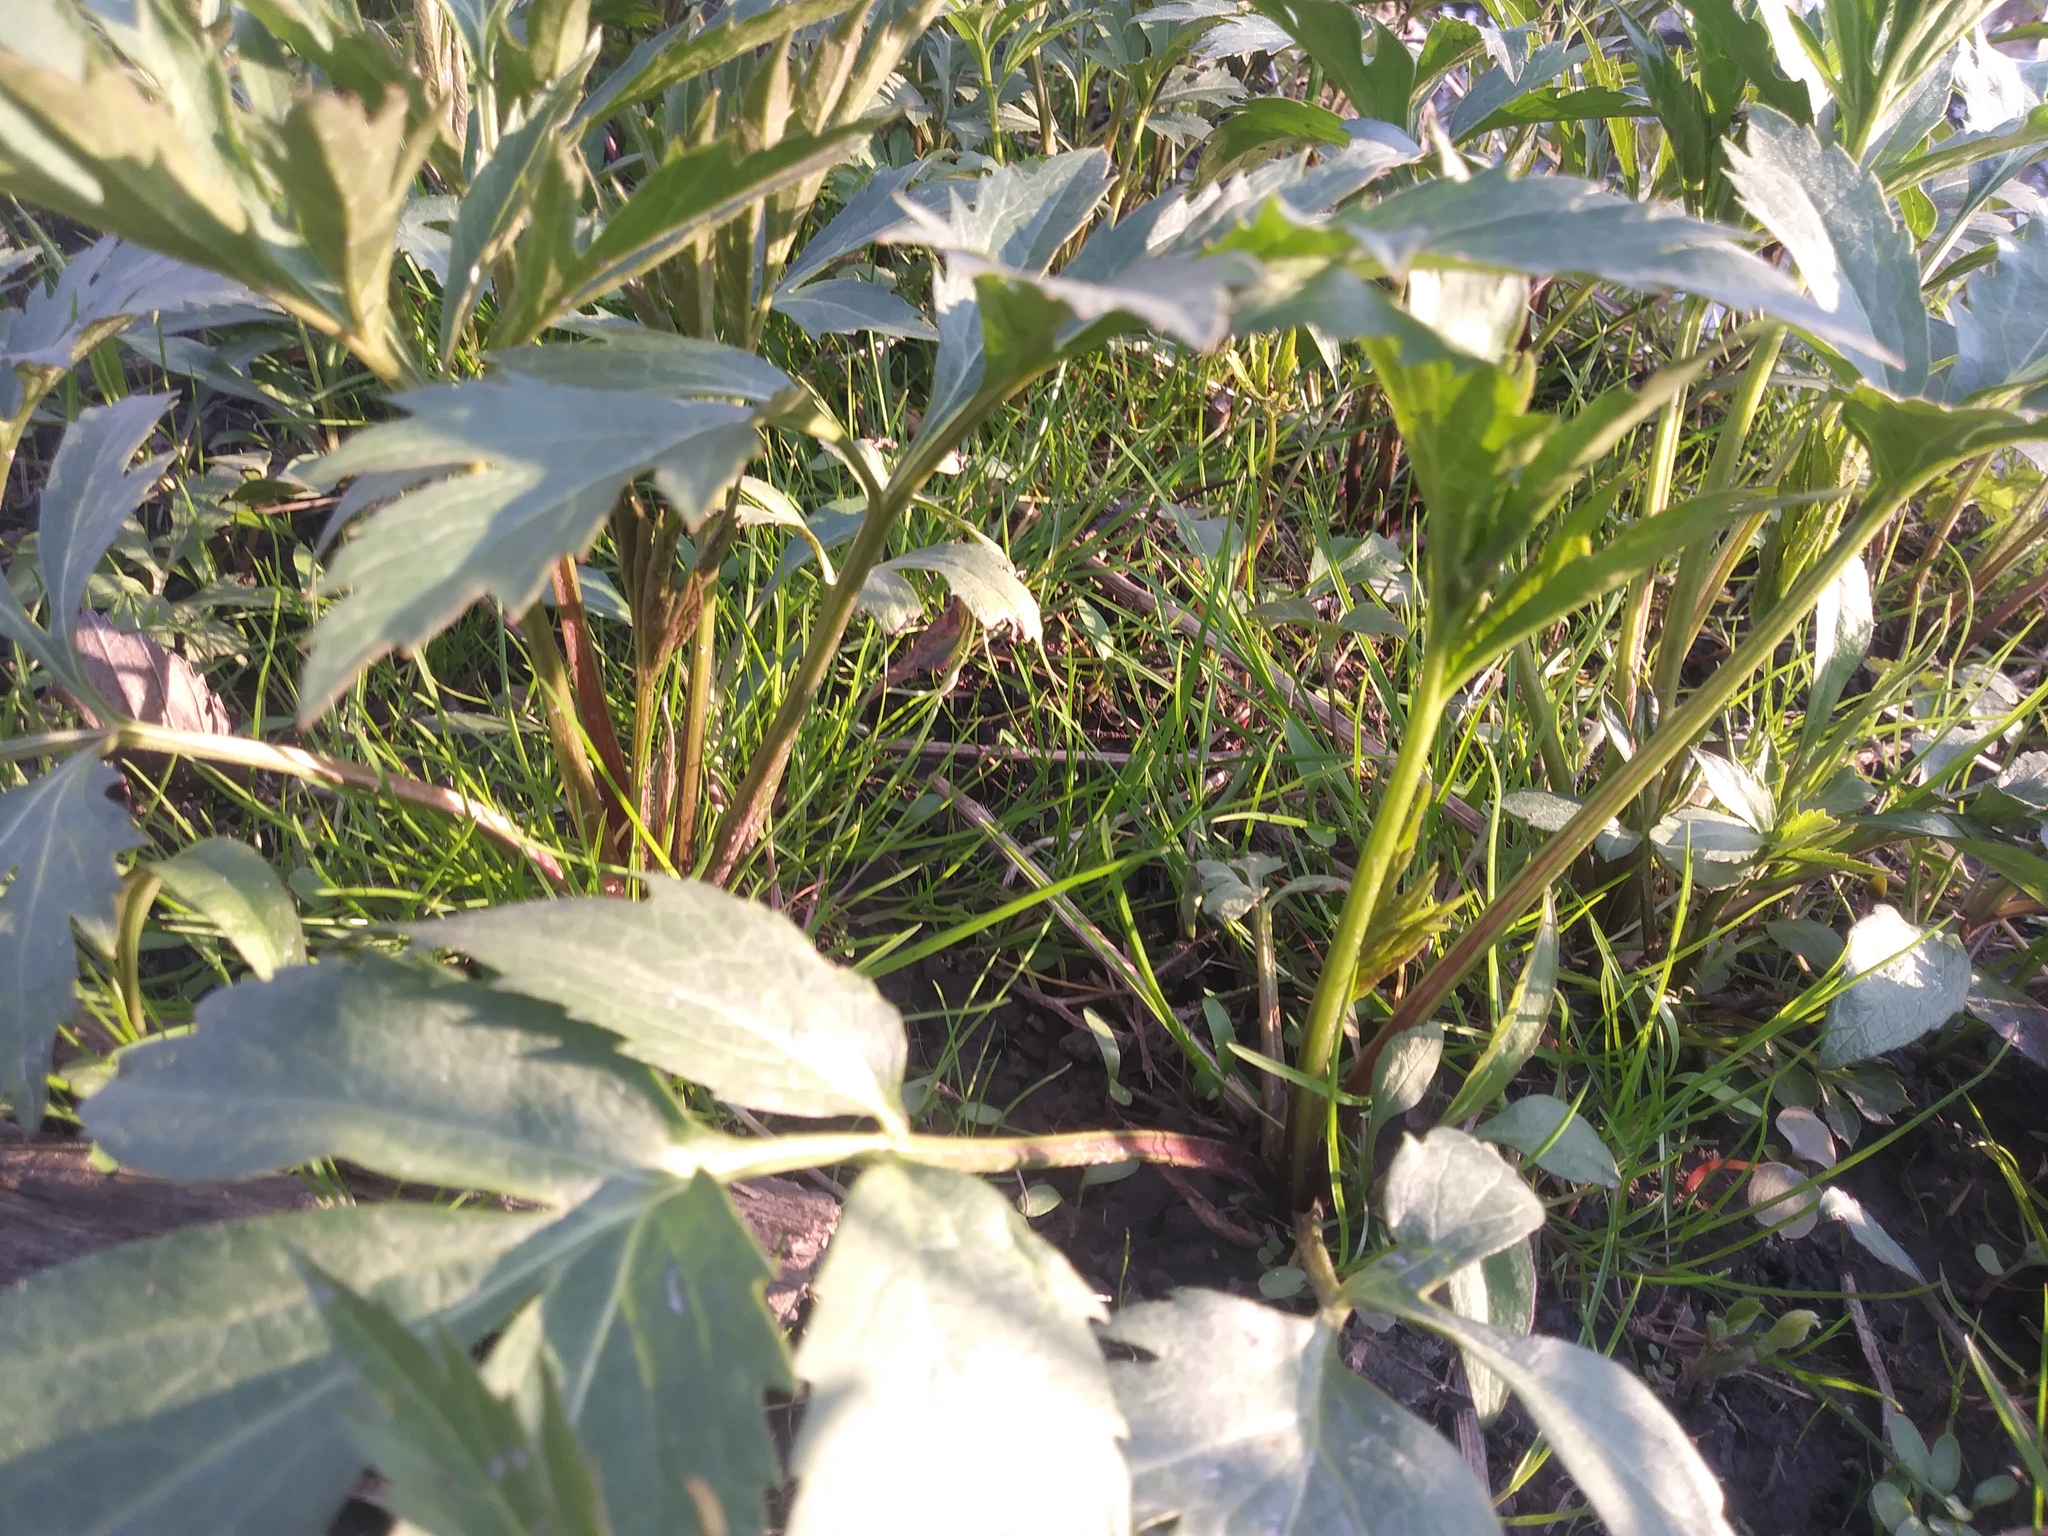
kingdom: Plantae
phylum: Tracheophyta
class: Magnoliopsida
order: Asterales
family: Asteraceae
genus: Rudbeckia
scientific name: Rudbeckia laciniata
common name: Coneflower
